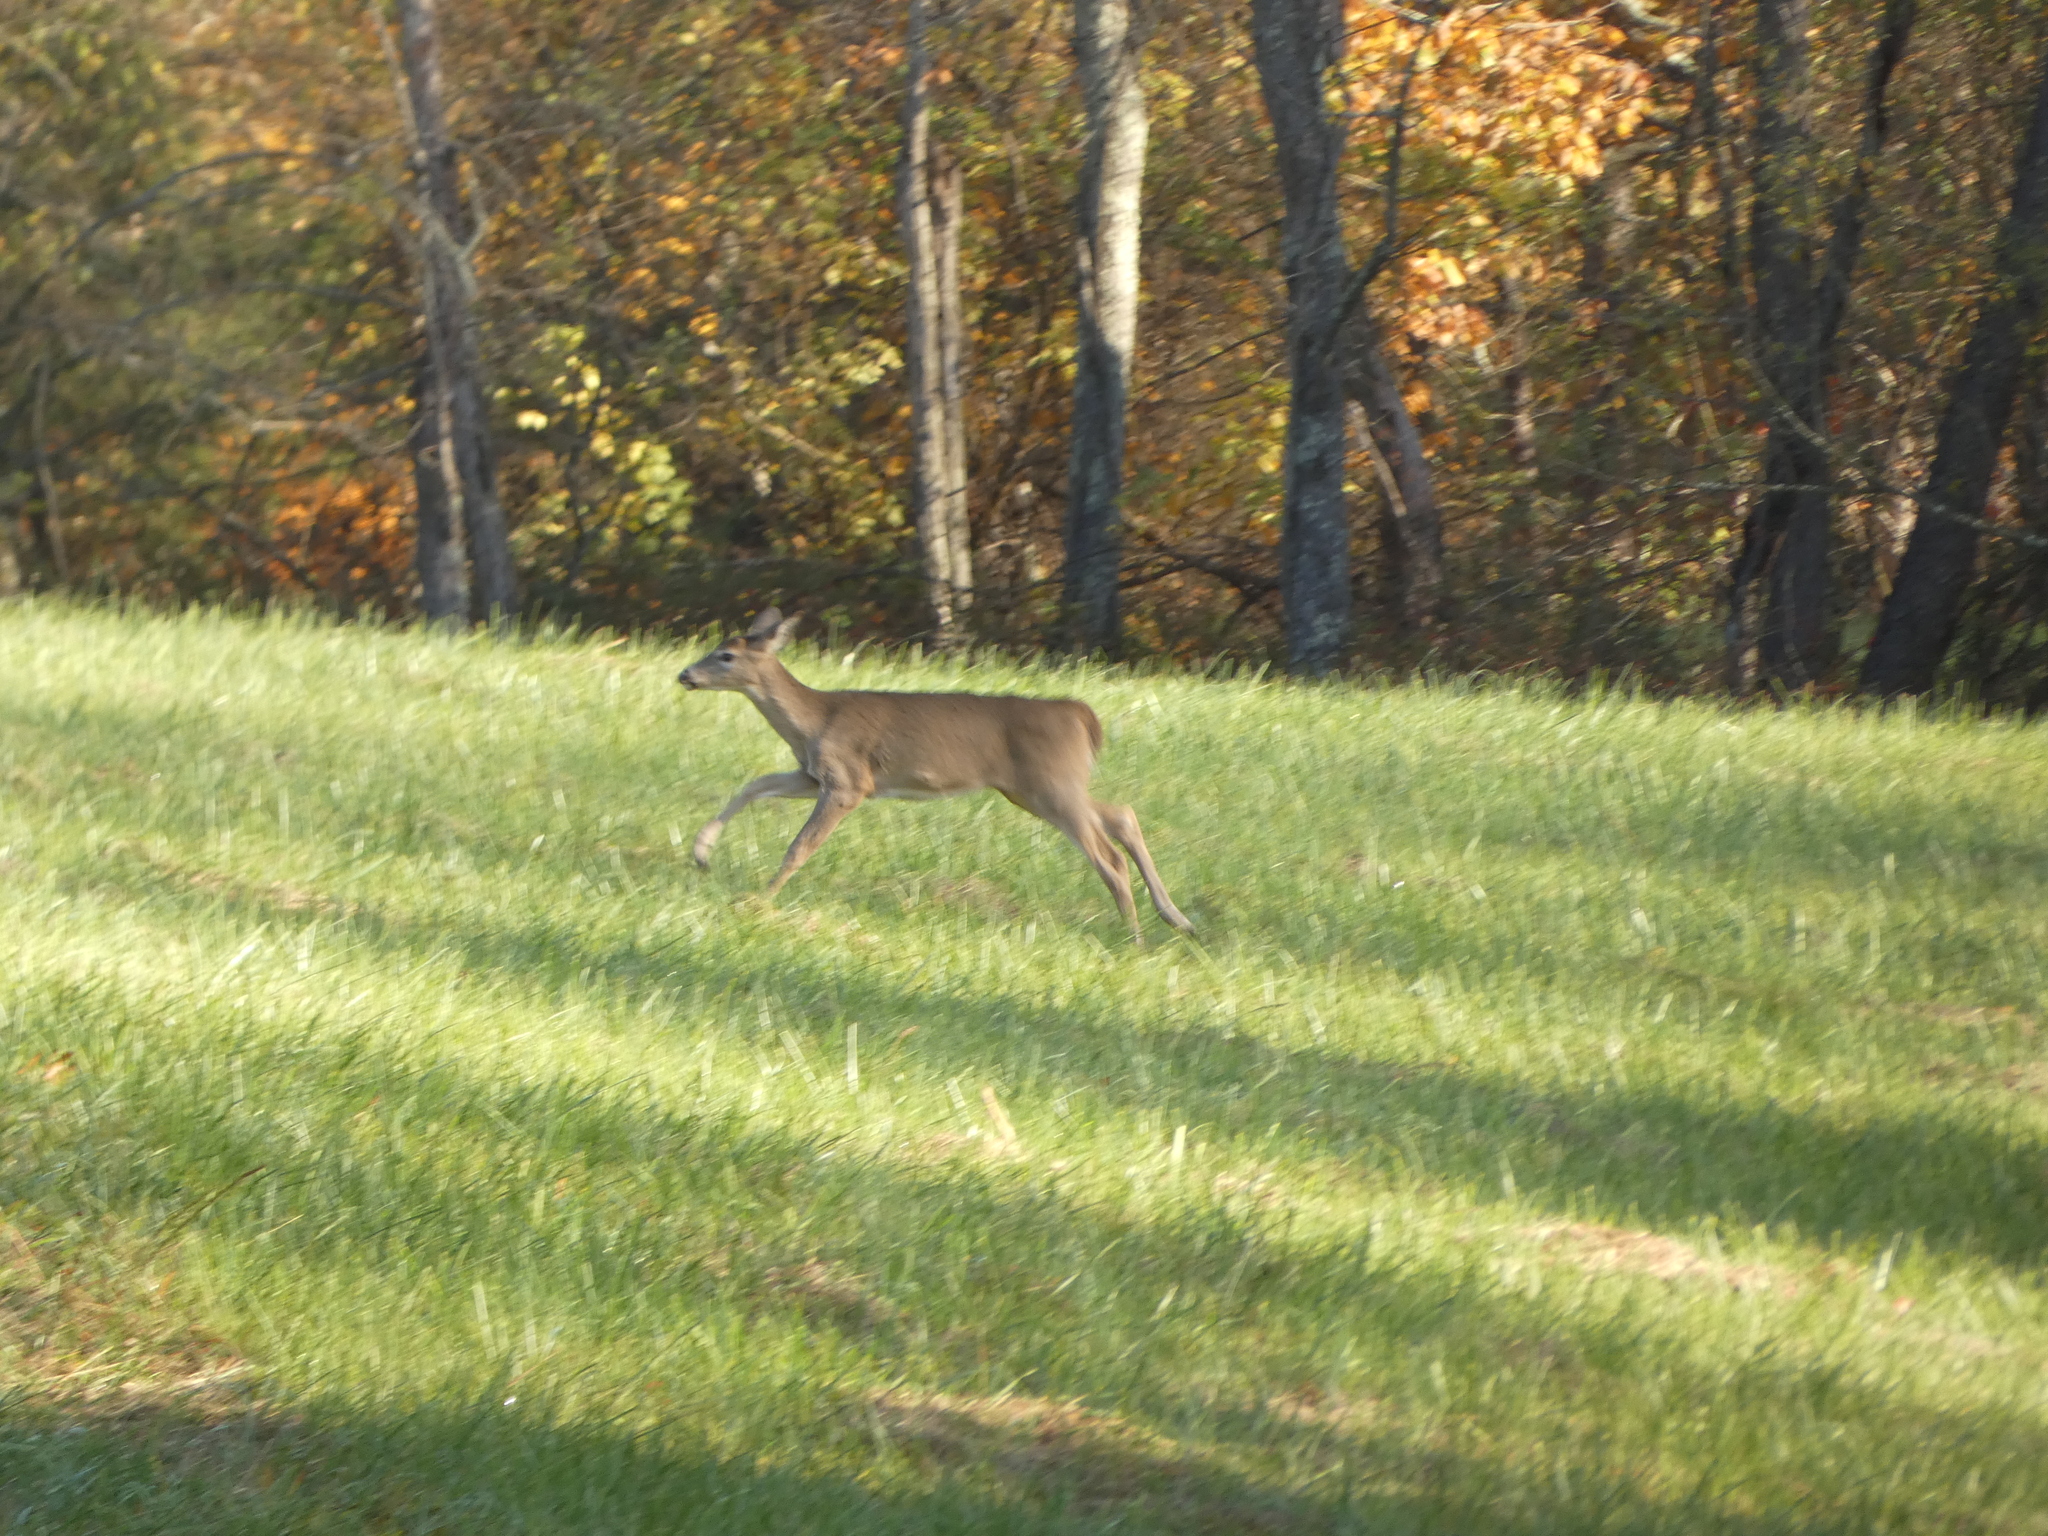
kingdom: Animalia
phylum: Chordata
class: Mammalia
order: Artiodactyla
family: Cervidae
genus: Odocoileus
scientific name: Odocoileus virginianus
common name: White-tailed deer
